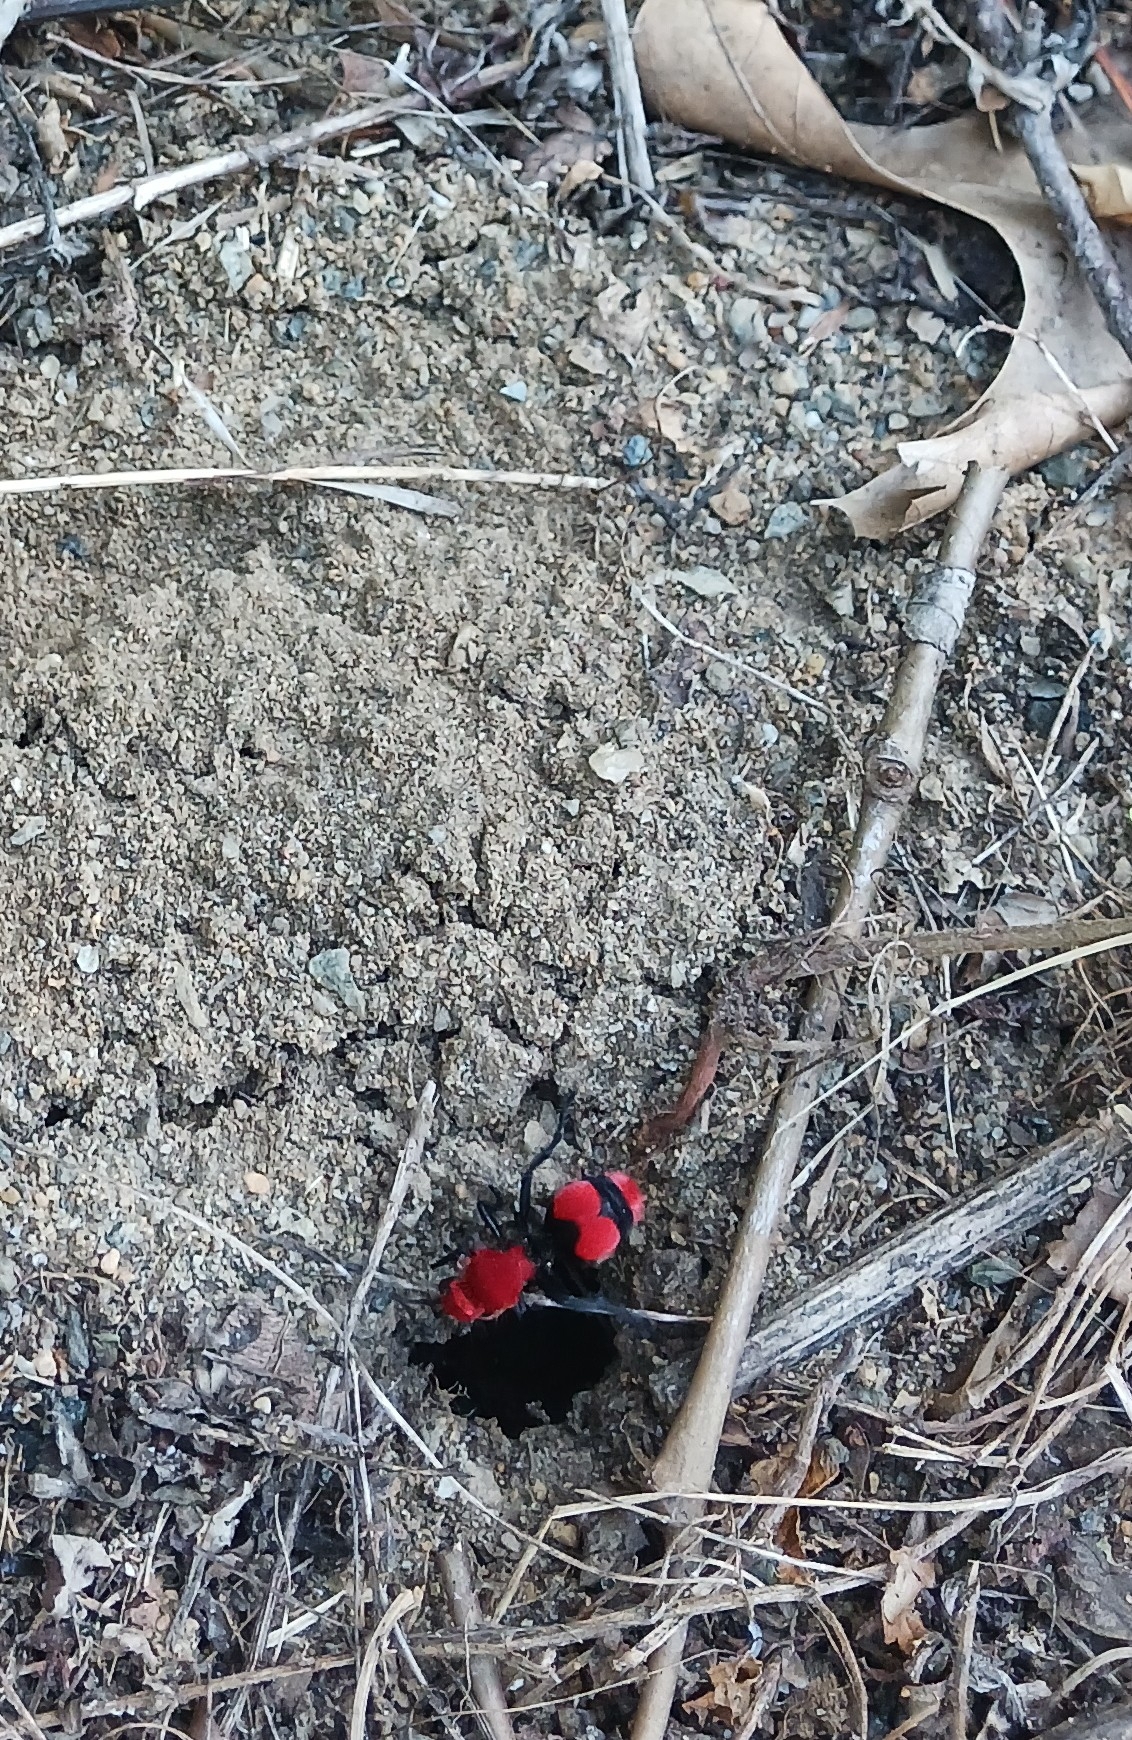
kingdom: Animalia
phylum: Arthropoda
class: Insecta
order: Hymenoptera
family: Mutillidae
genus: Dasymutilla
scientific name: Dasymutilla occidentalis
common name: Common eastern velvet ant
